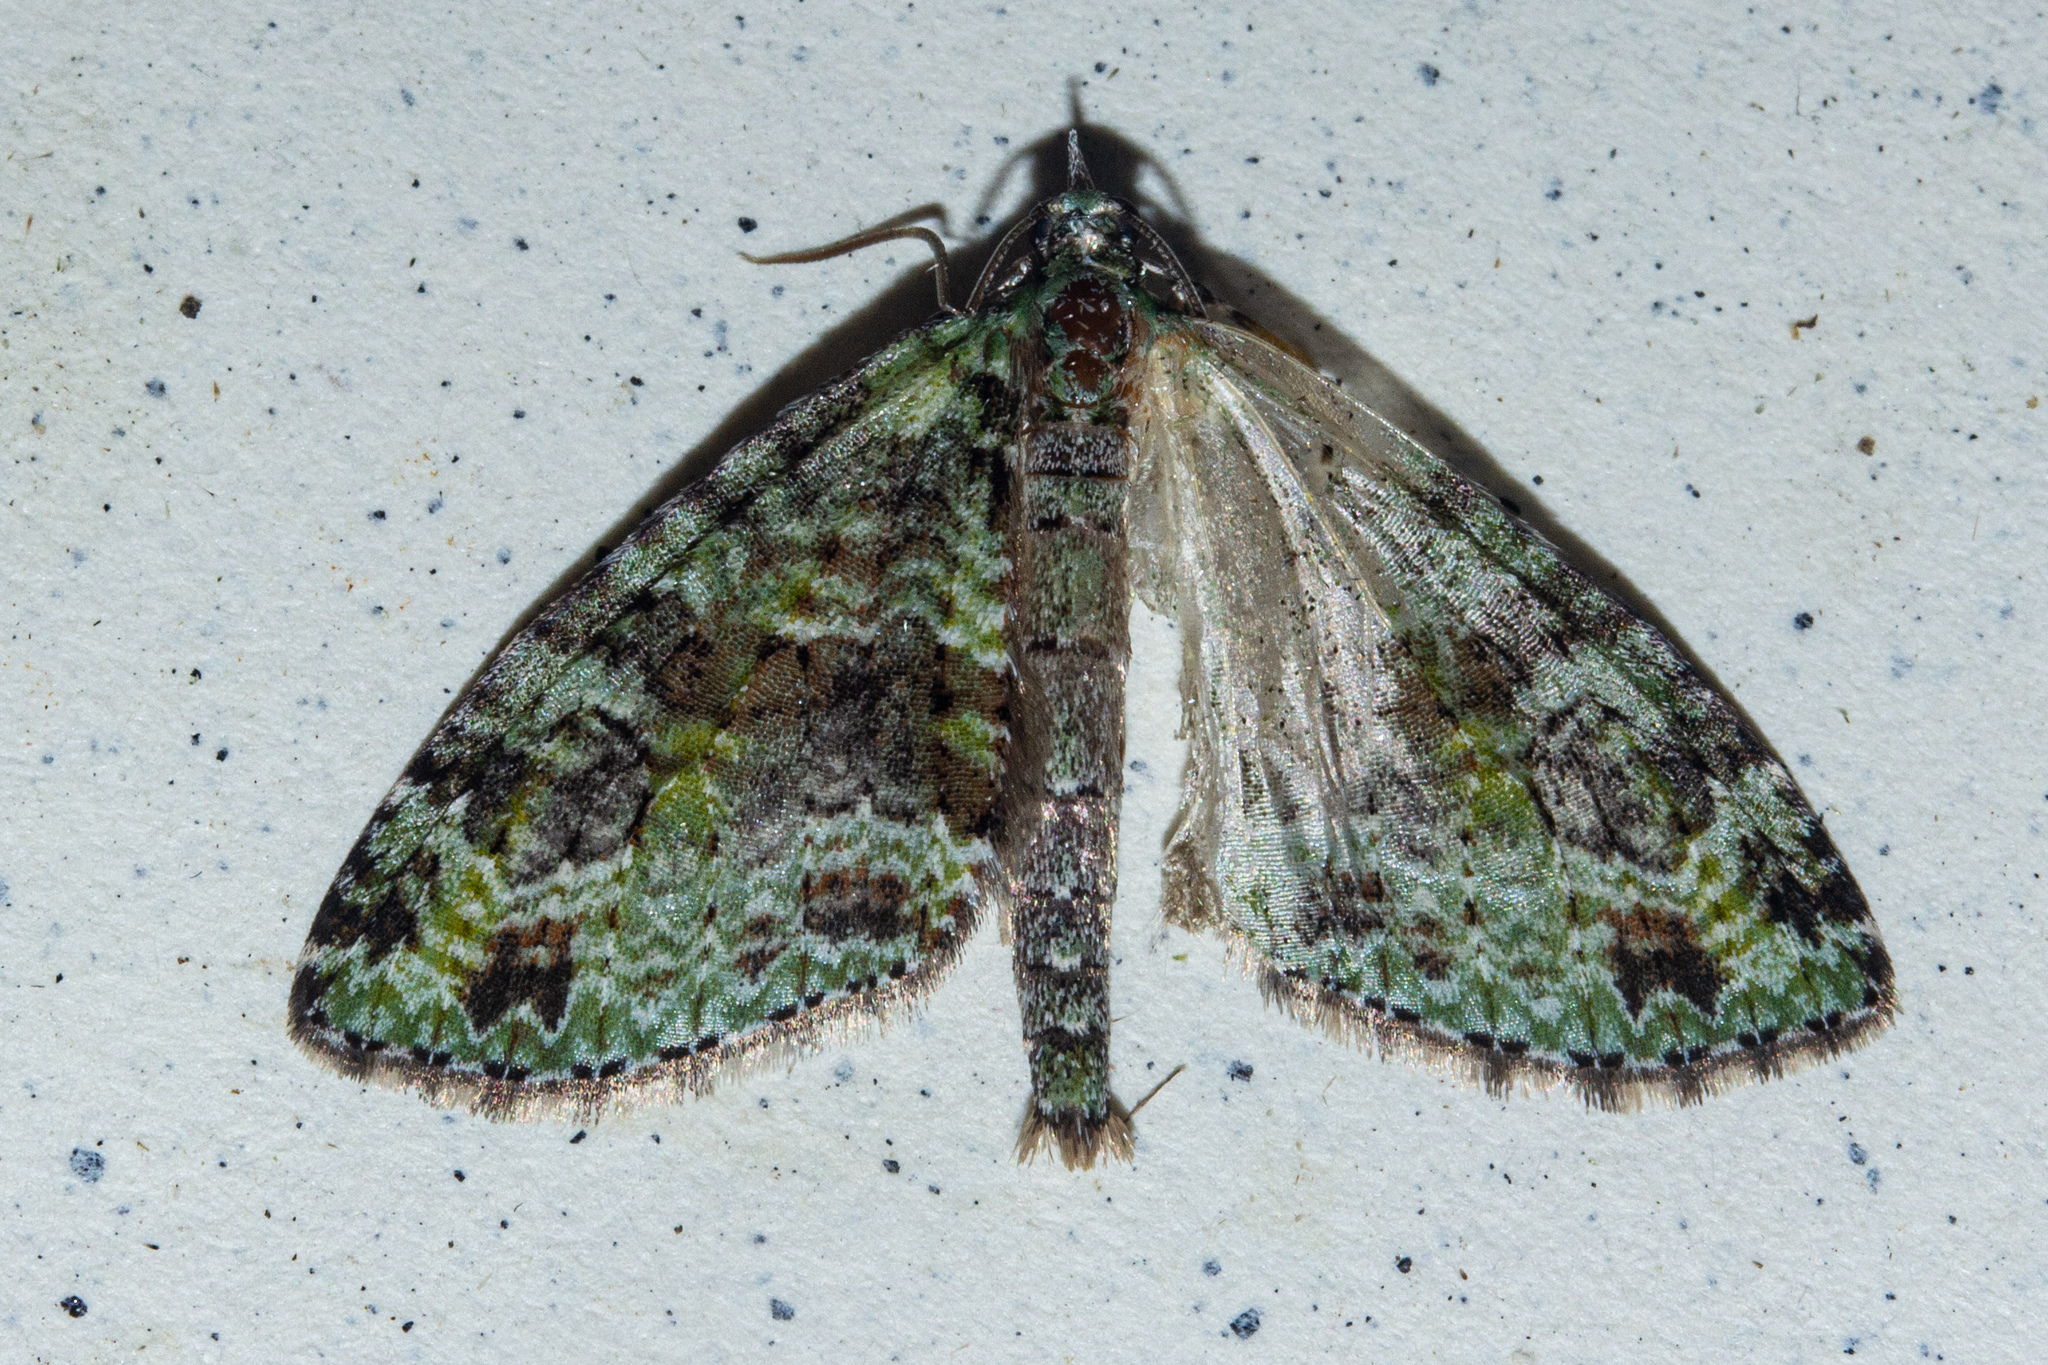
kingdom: Animalia
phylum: Arthropoda
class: Insecta
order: Lepidoptera
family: Geometridae
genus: Tatosoma
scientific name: Tatosoma alta
